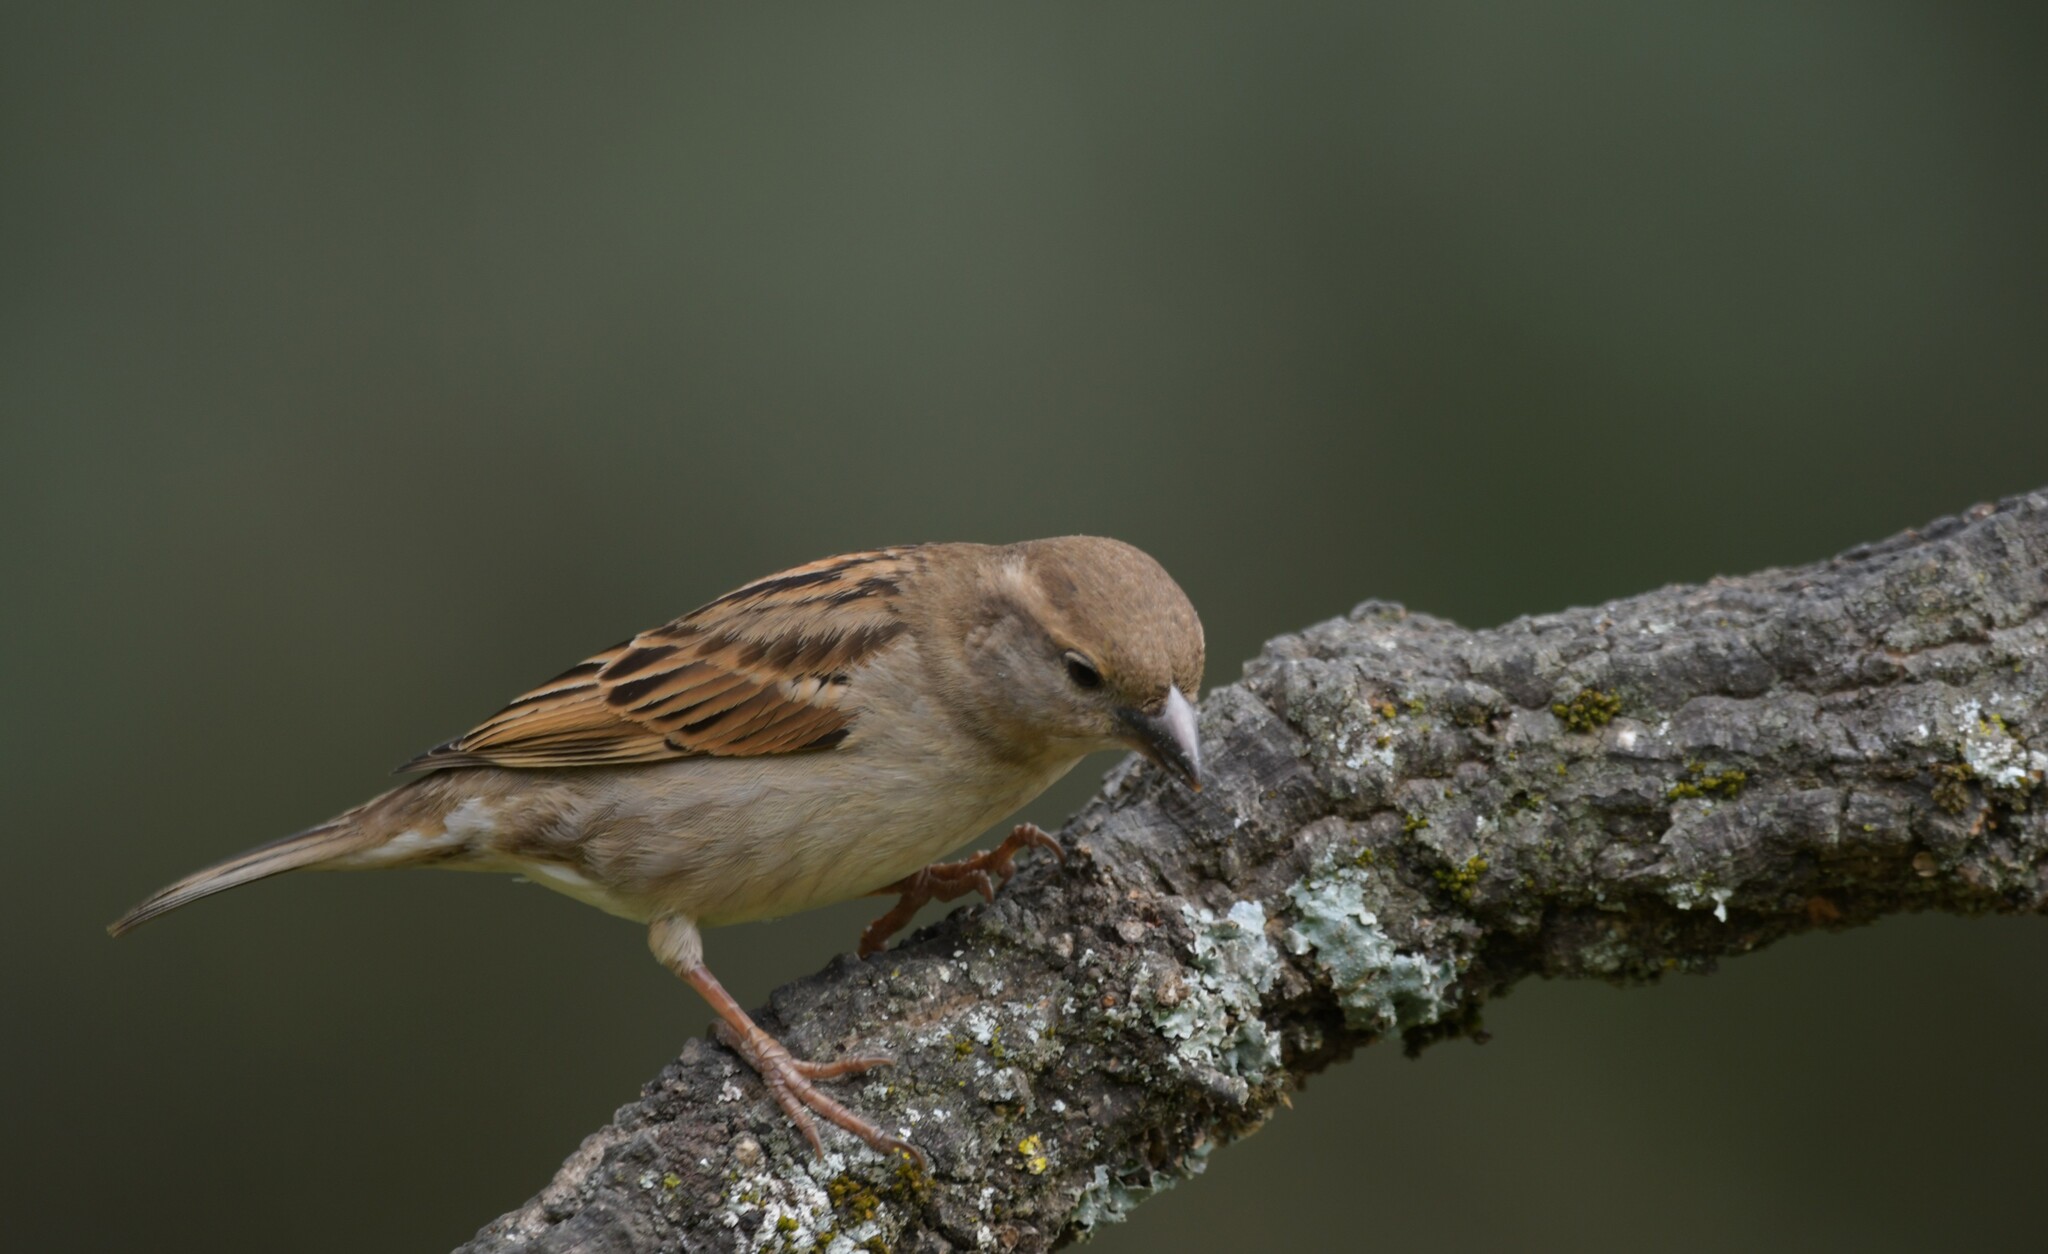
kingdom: Animalia
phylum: Chordata
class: Aves
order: Passeriformes
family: Passeridae
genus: Passer
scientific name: Passer domesticus
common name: House sparrow
